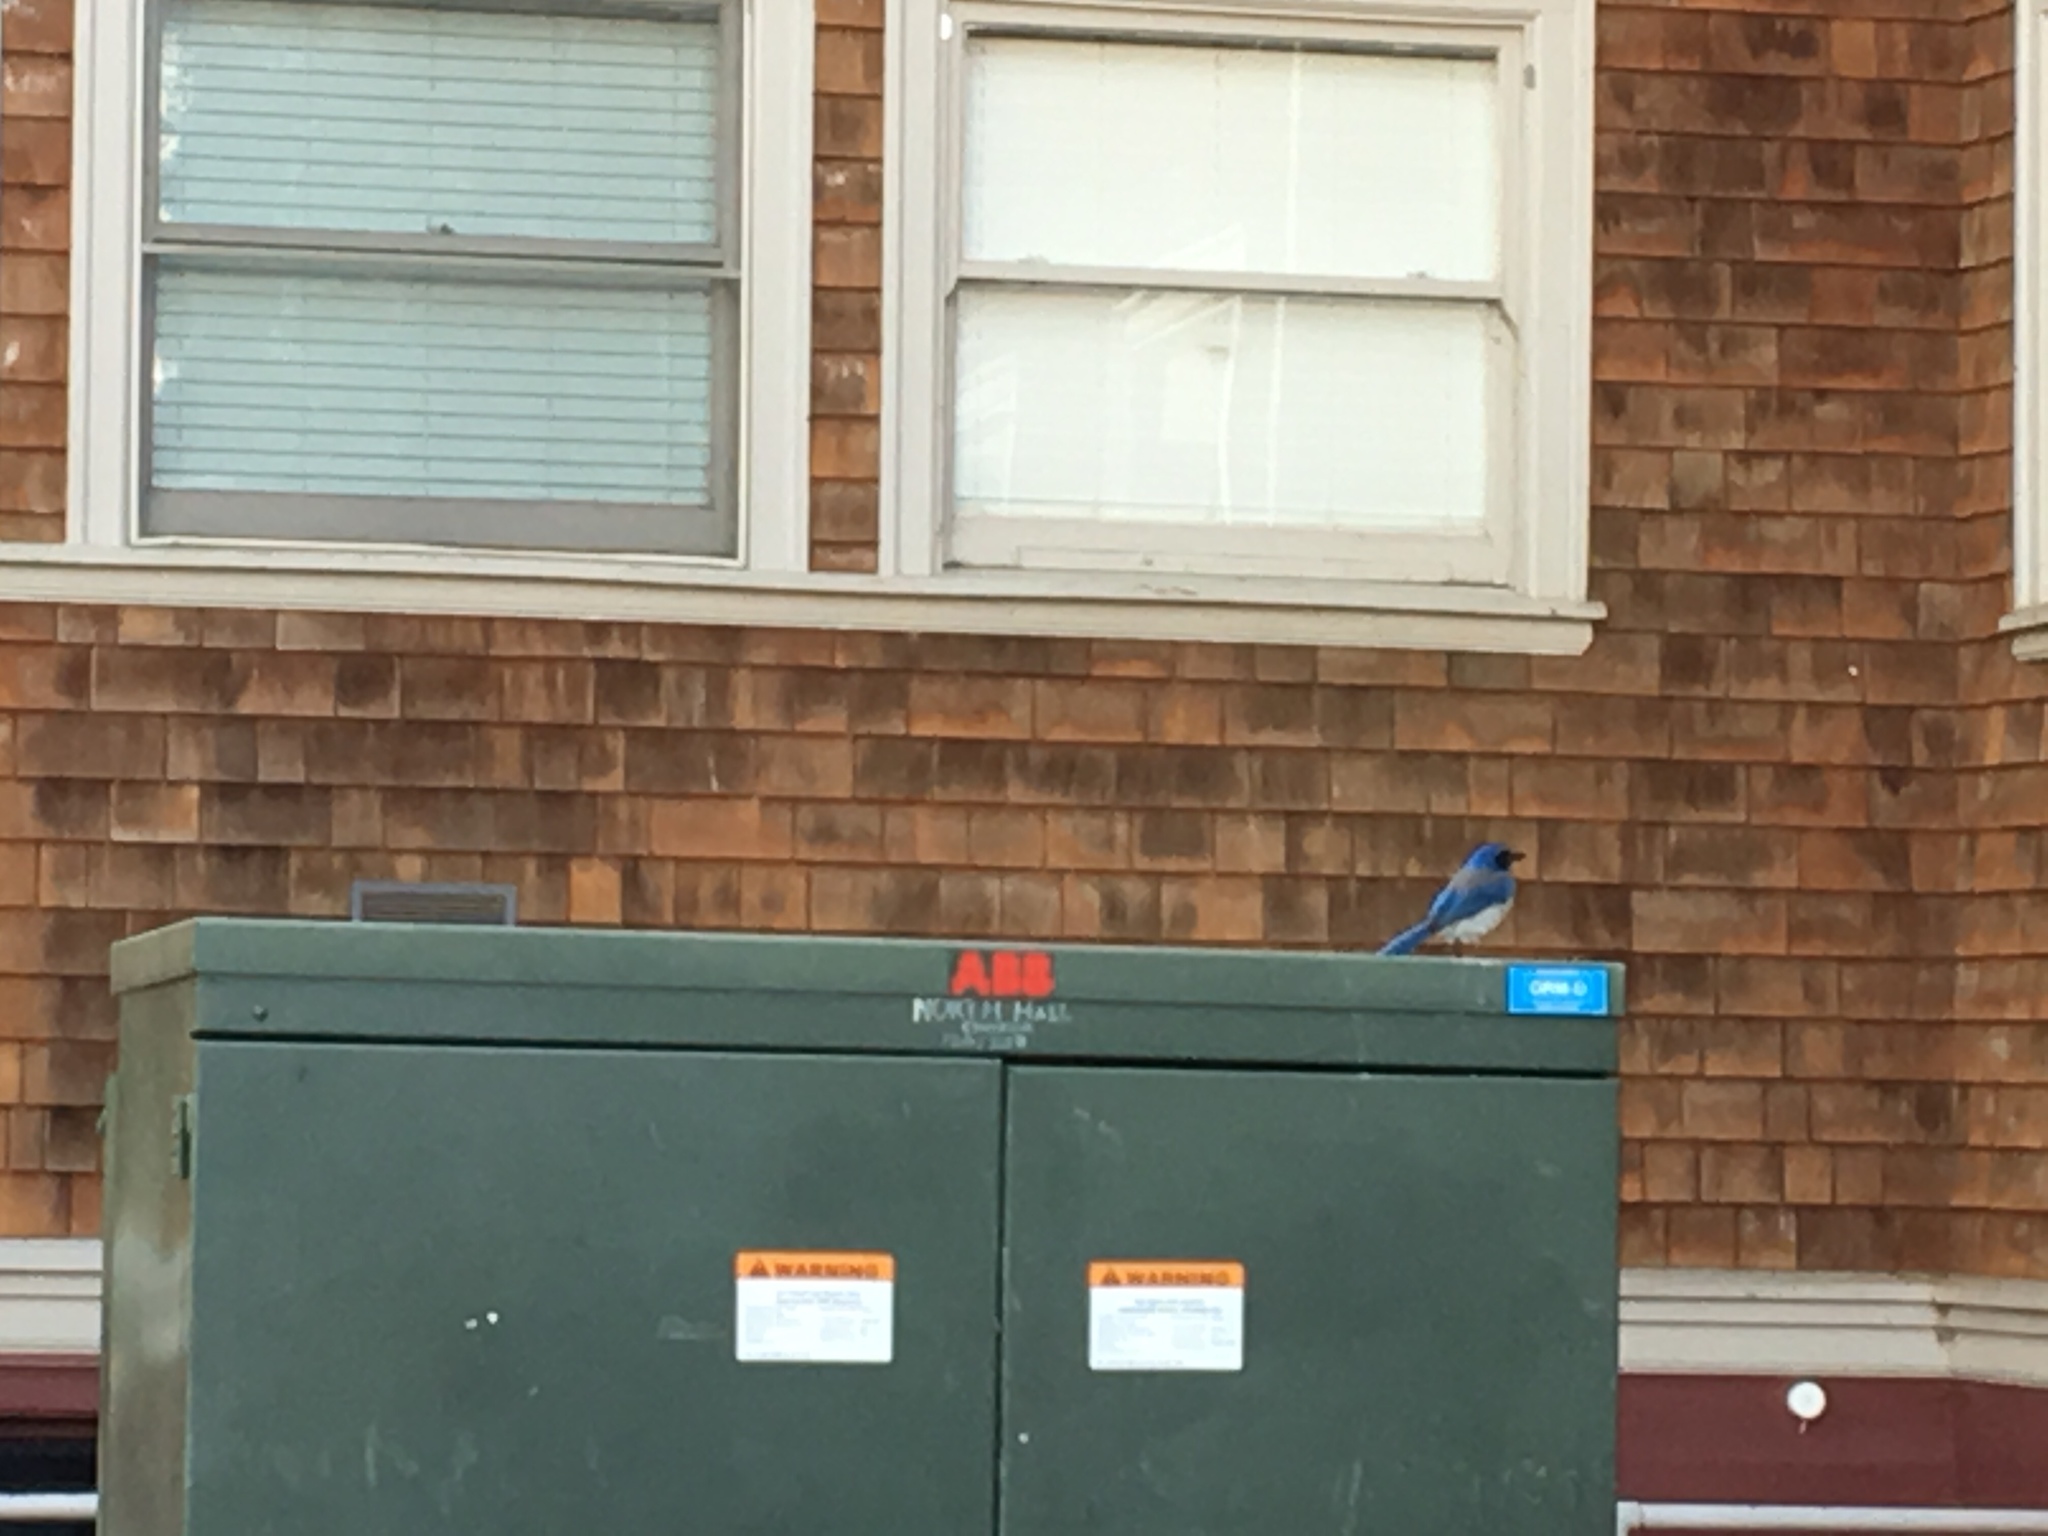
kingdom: Animalia
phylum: Chordata
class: Aves
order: Passeriformes
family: Corvidae
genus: Aphelocoma
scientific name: Aphelocoma californica
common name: California scrub-jay
